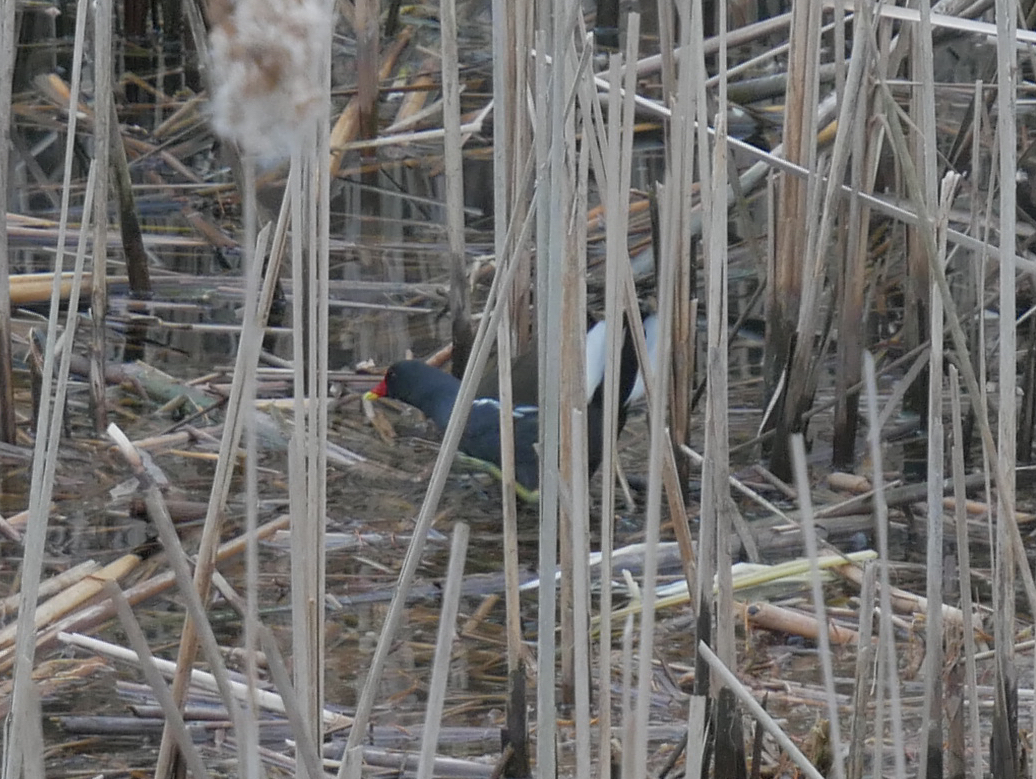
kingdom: Animalia
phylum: Chordata
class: Aves
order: Gruiformes
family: Rallidae
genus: Gallinula
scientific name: Gallinula chloropus
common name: Common moorhen
